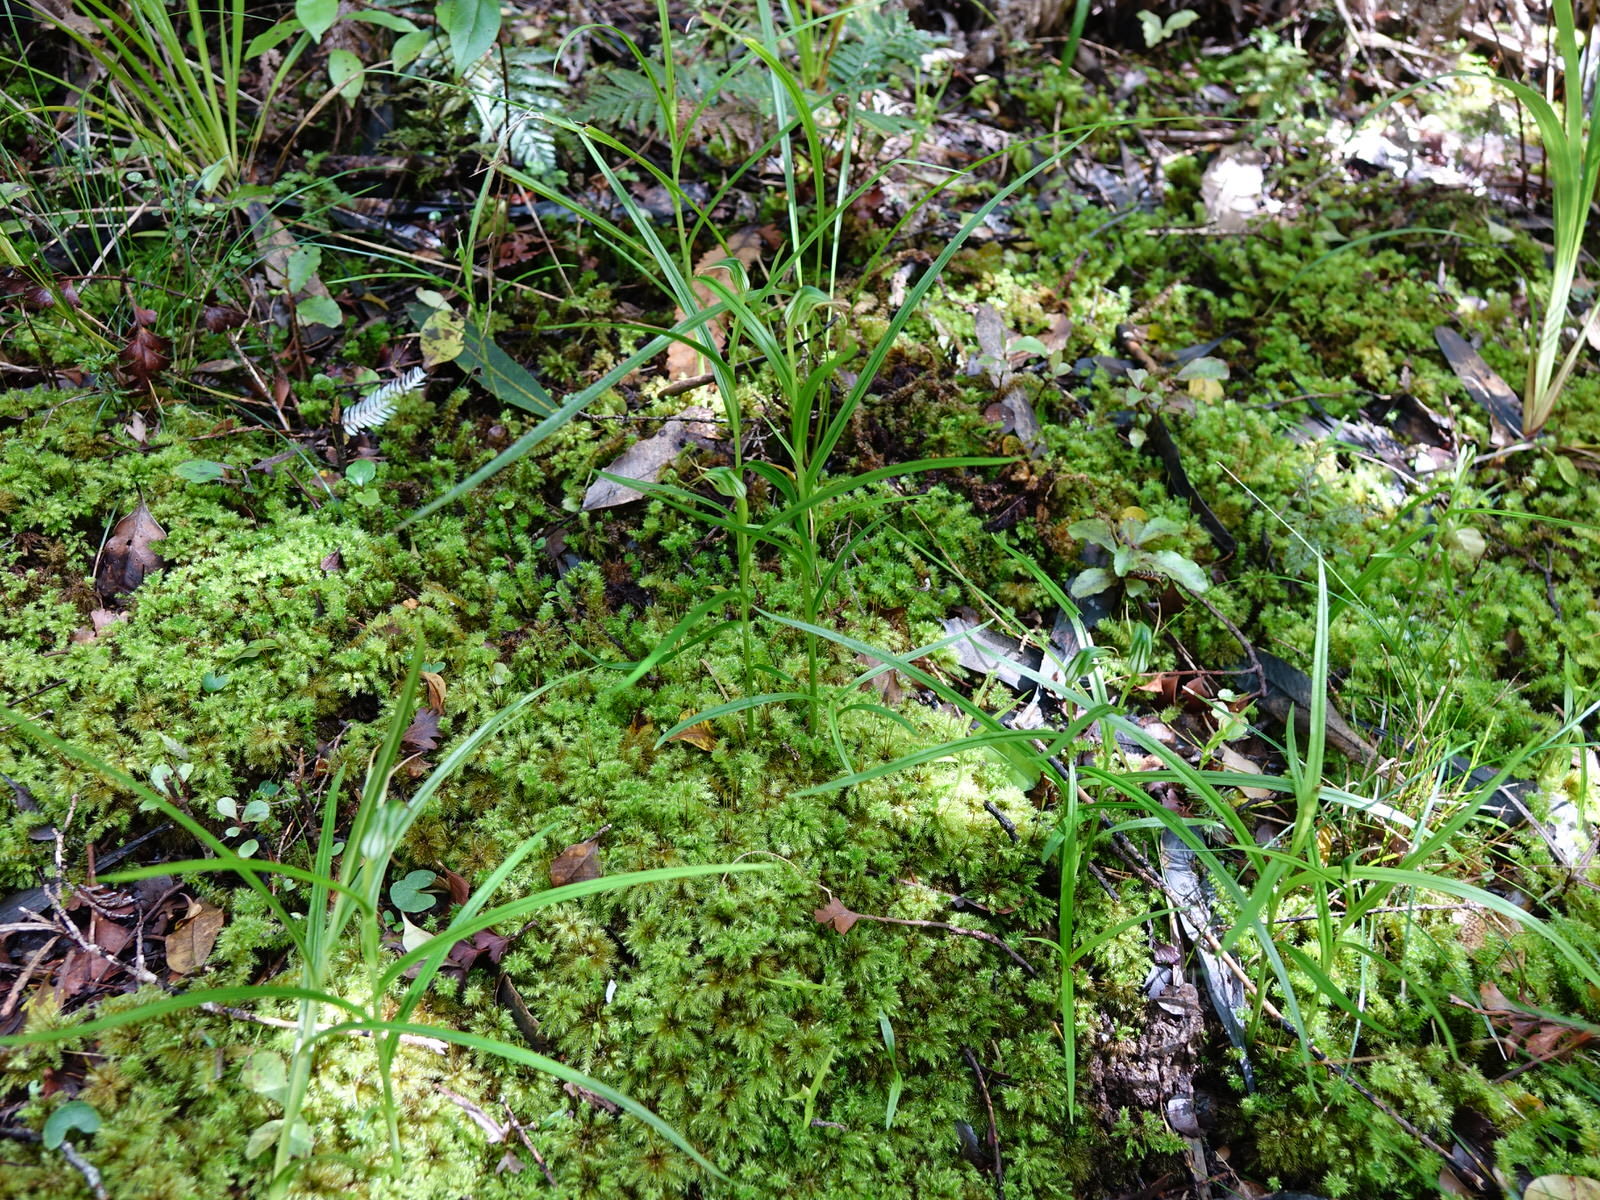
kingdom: Plantae
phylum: Tracheophyta
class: Liliopsida
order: Asparagales
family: Orchidaceae
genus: Pterostylis
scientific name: Pterostylis graminea
